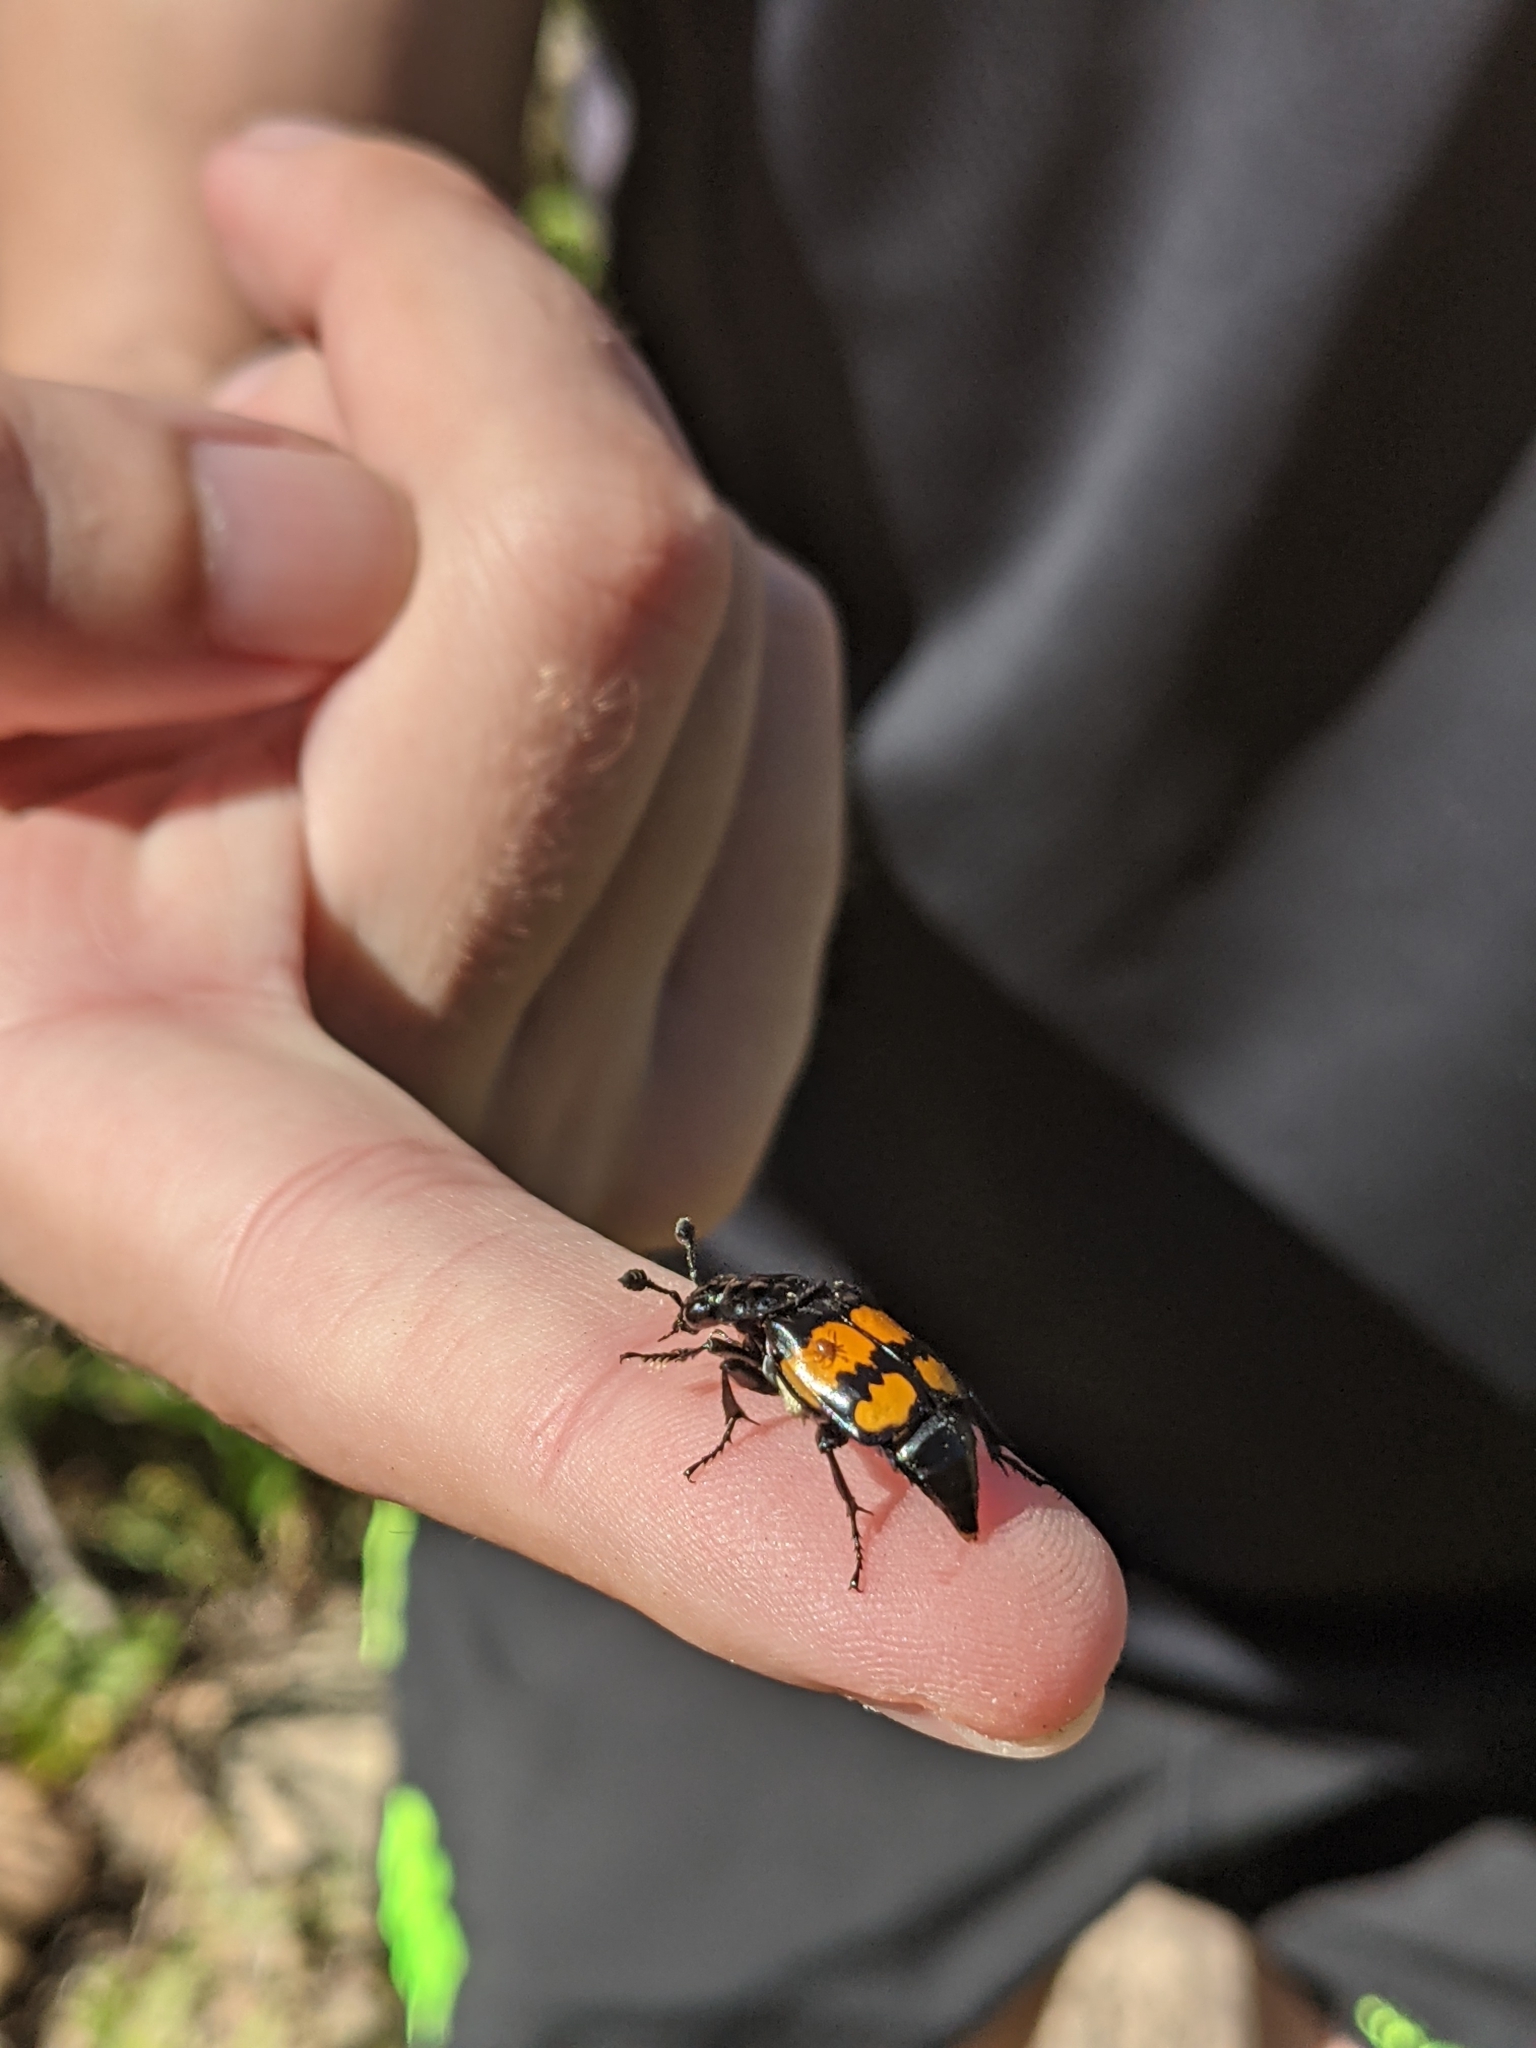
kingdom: Animalia
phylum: Arthropoda
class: Insecta
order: Coleoptera
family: Staphylinidae
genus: Nicrophorus
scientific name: Nicrophorus defodiens
